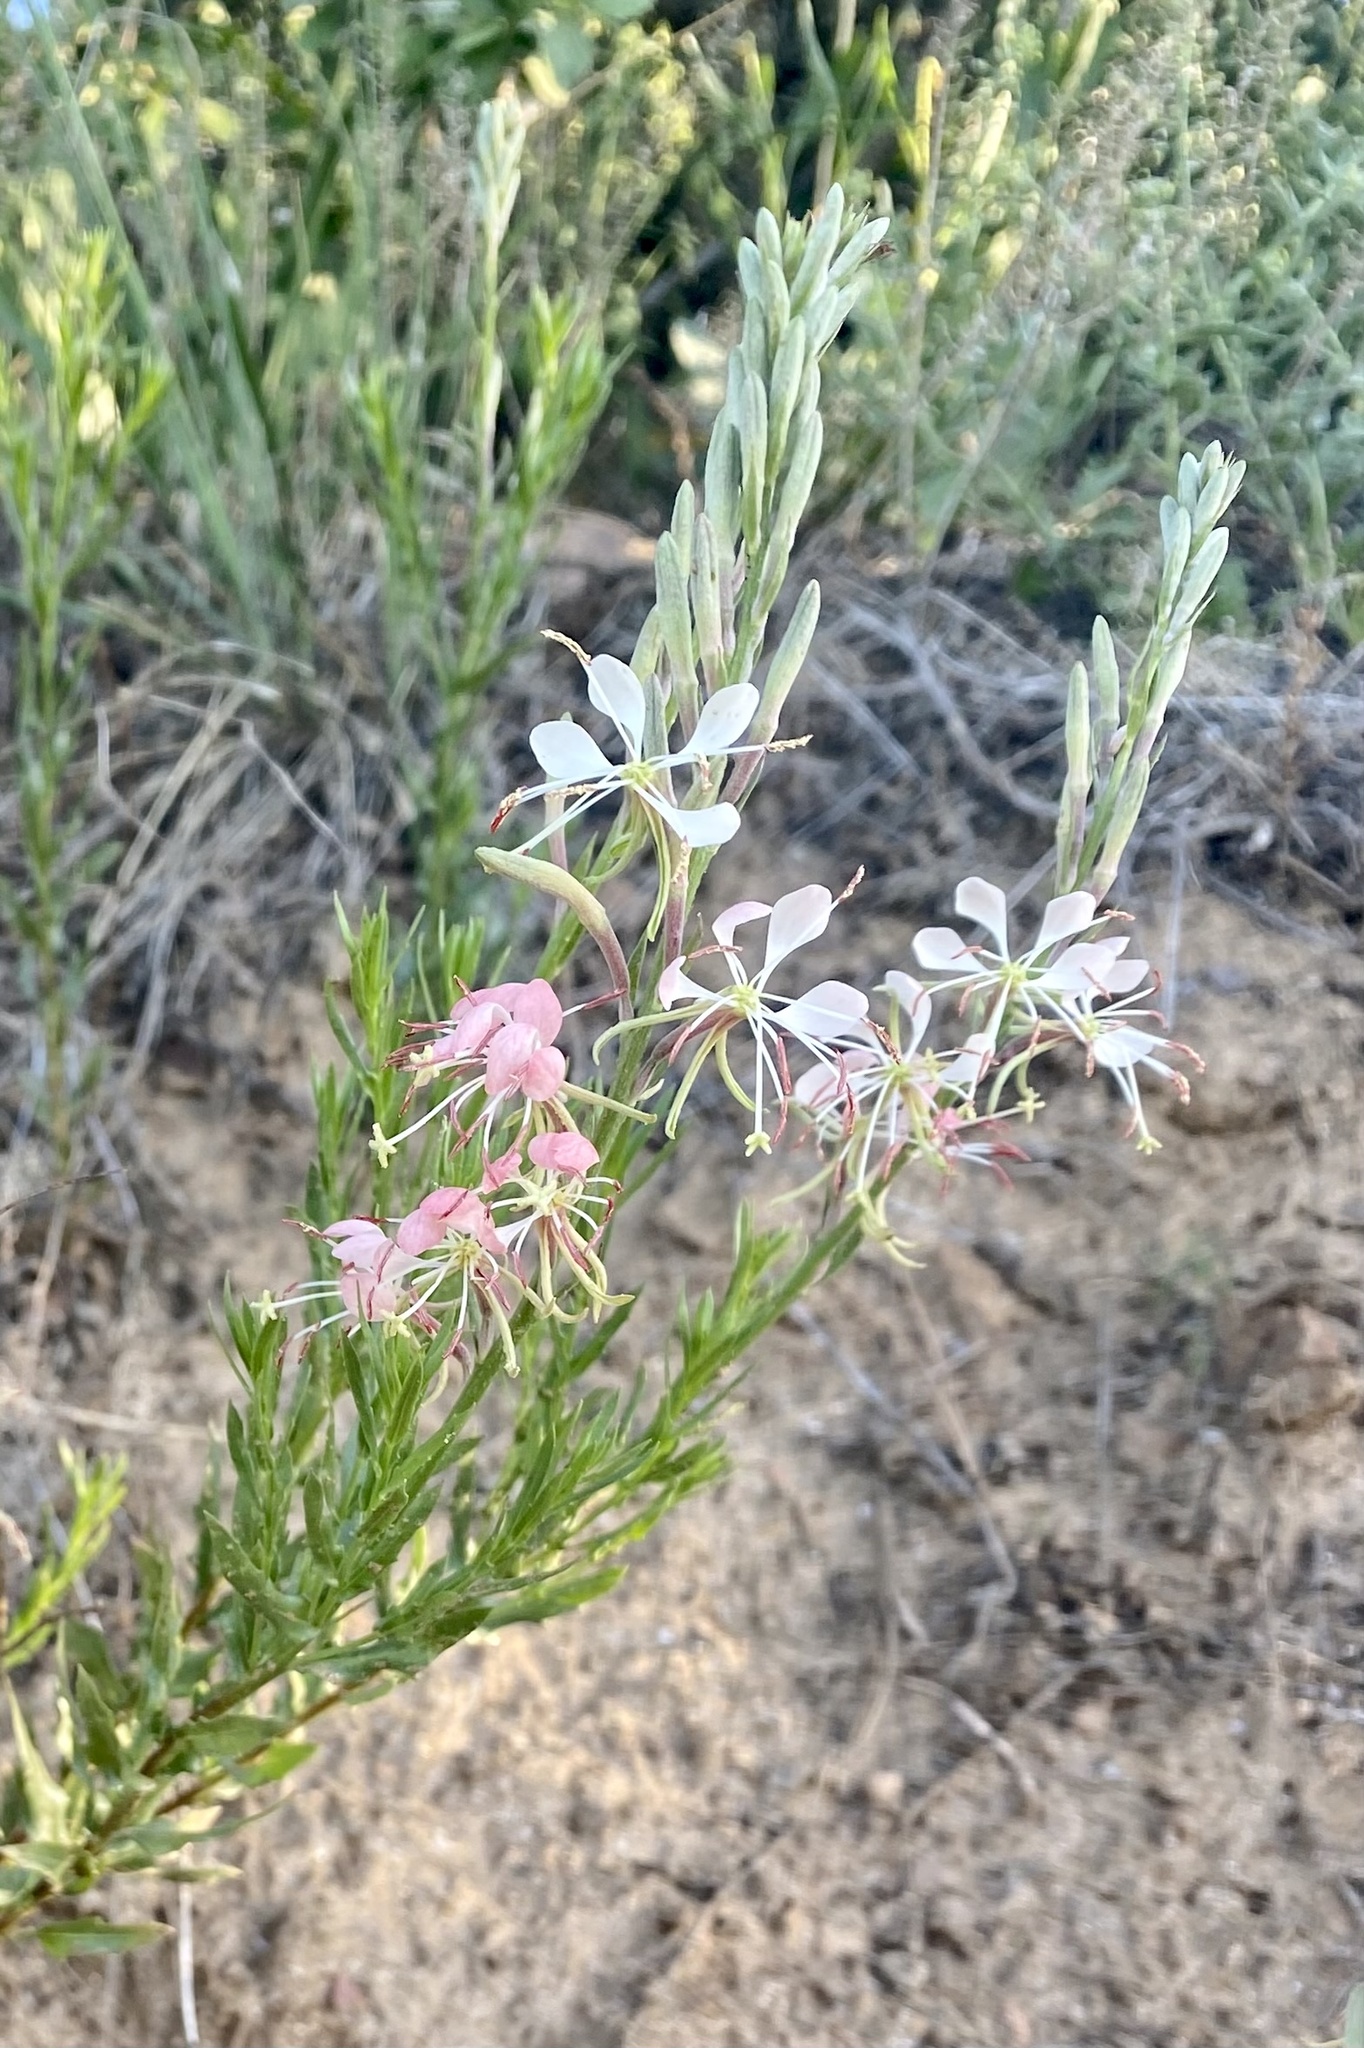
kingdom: Plantae
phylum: Tracheophyta
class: Magnoliopsida
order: Myrtales
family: Onagraceae
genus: Oenothera
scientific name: Oenothera suffrutescens
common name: Scarlet beeblossom
